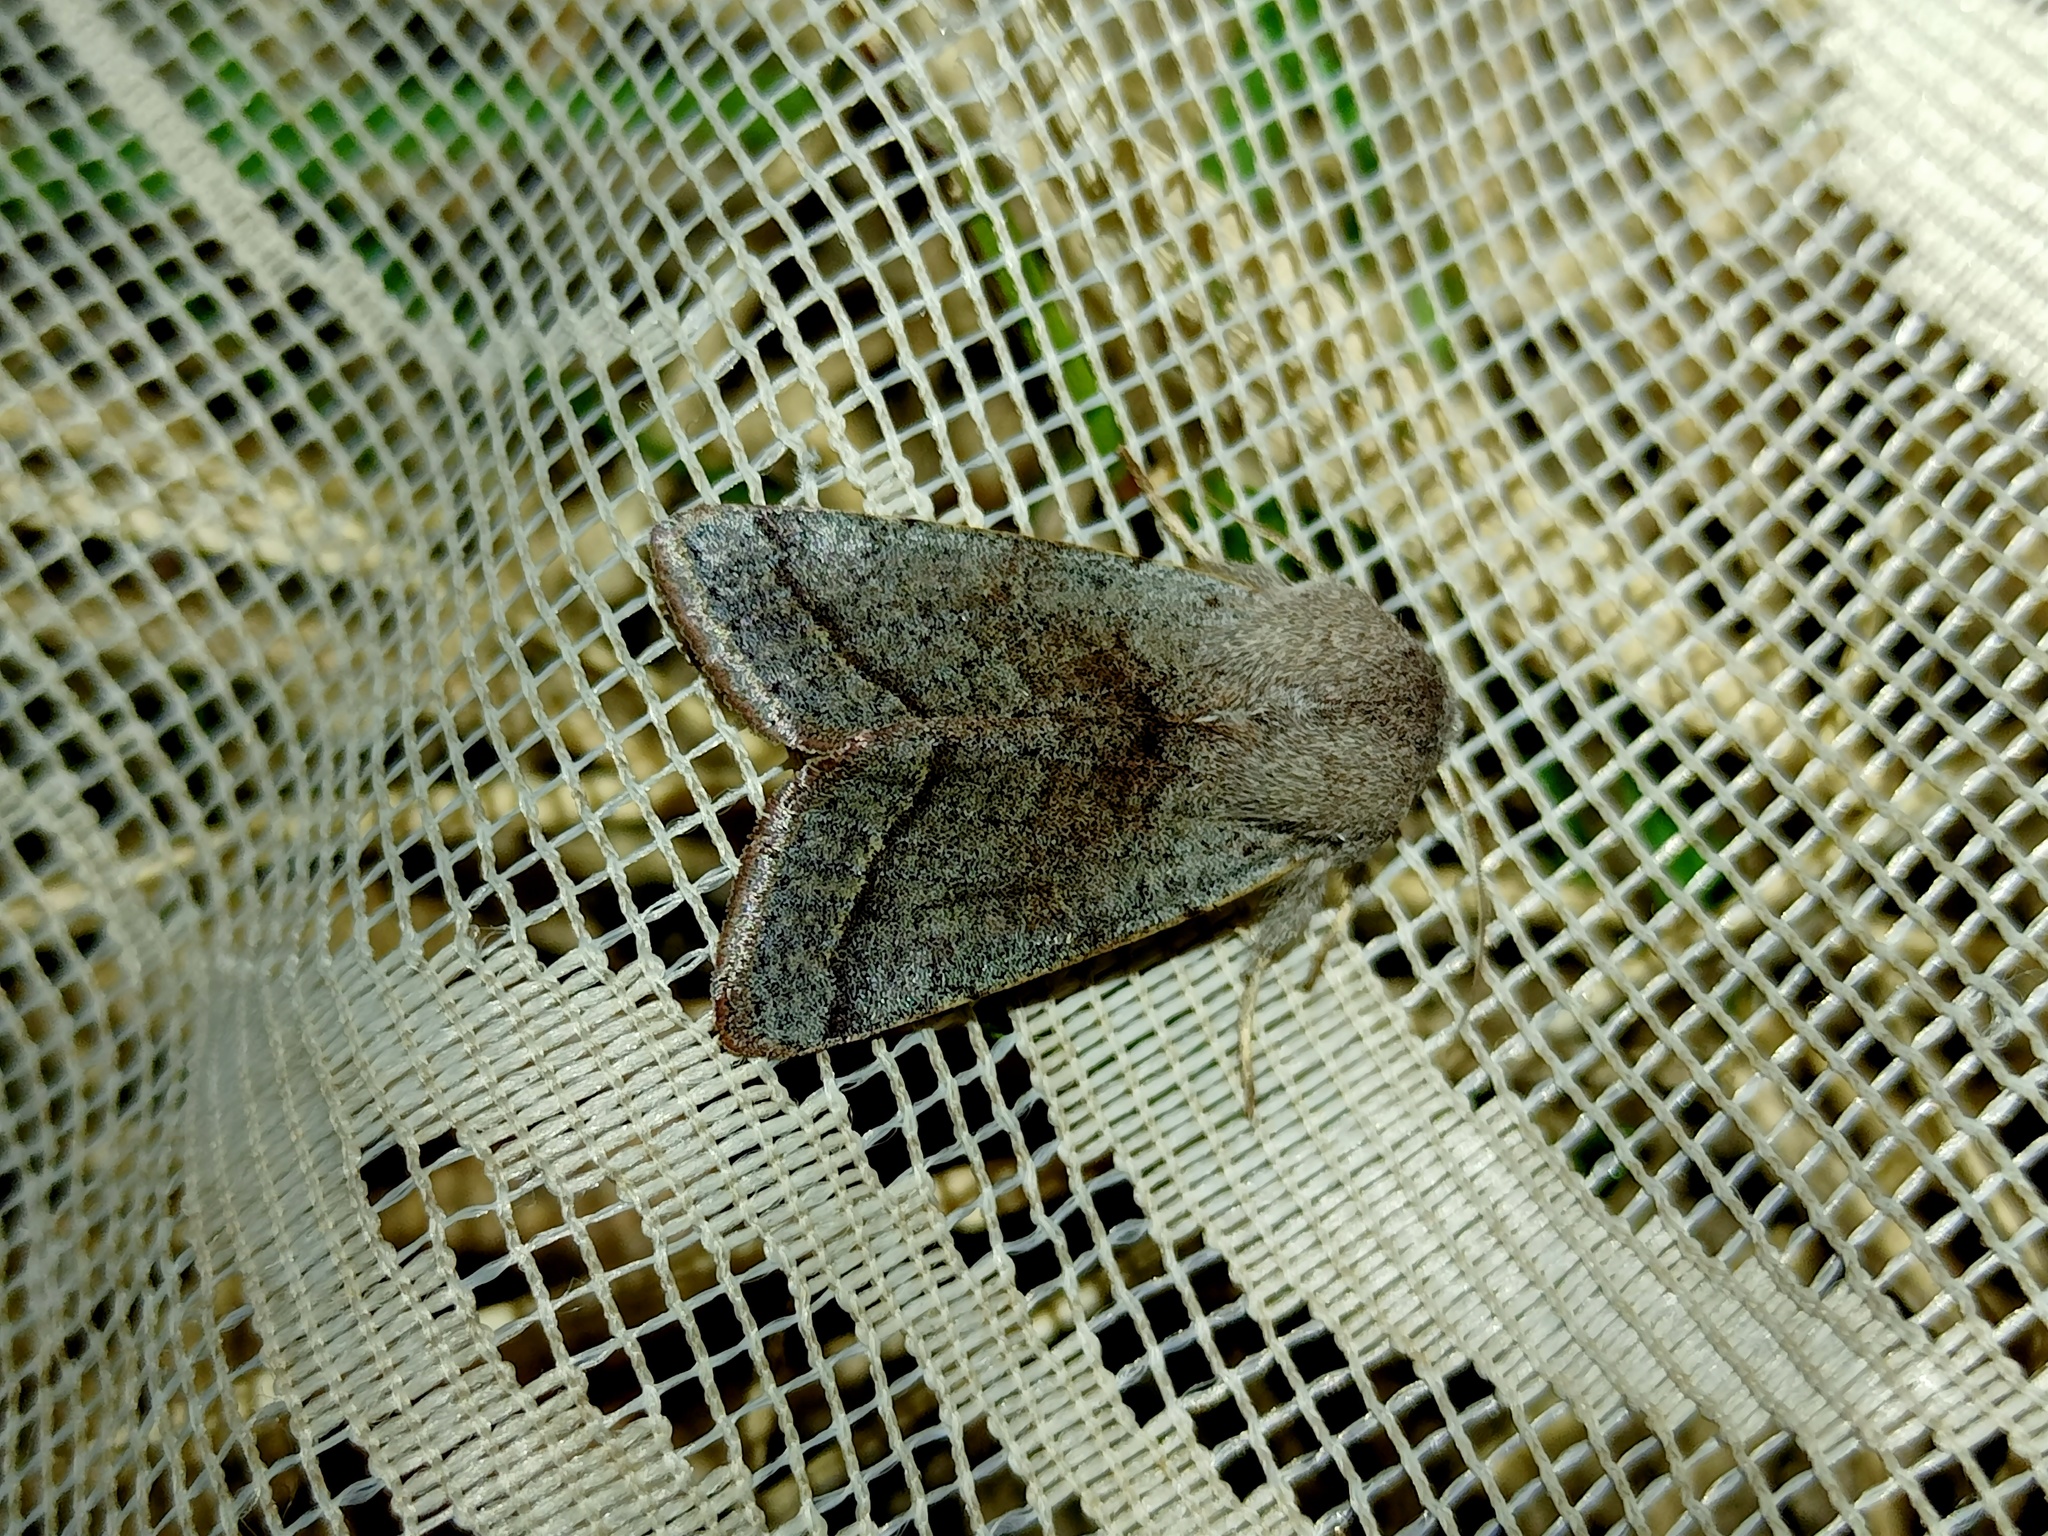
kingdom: Animalia
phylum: Arthropoda
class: Insecta
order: Lepidoptera
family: Noctuidae
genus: Orthosia
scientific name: Orthosia opima
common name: Northern drab
